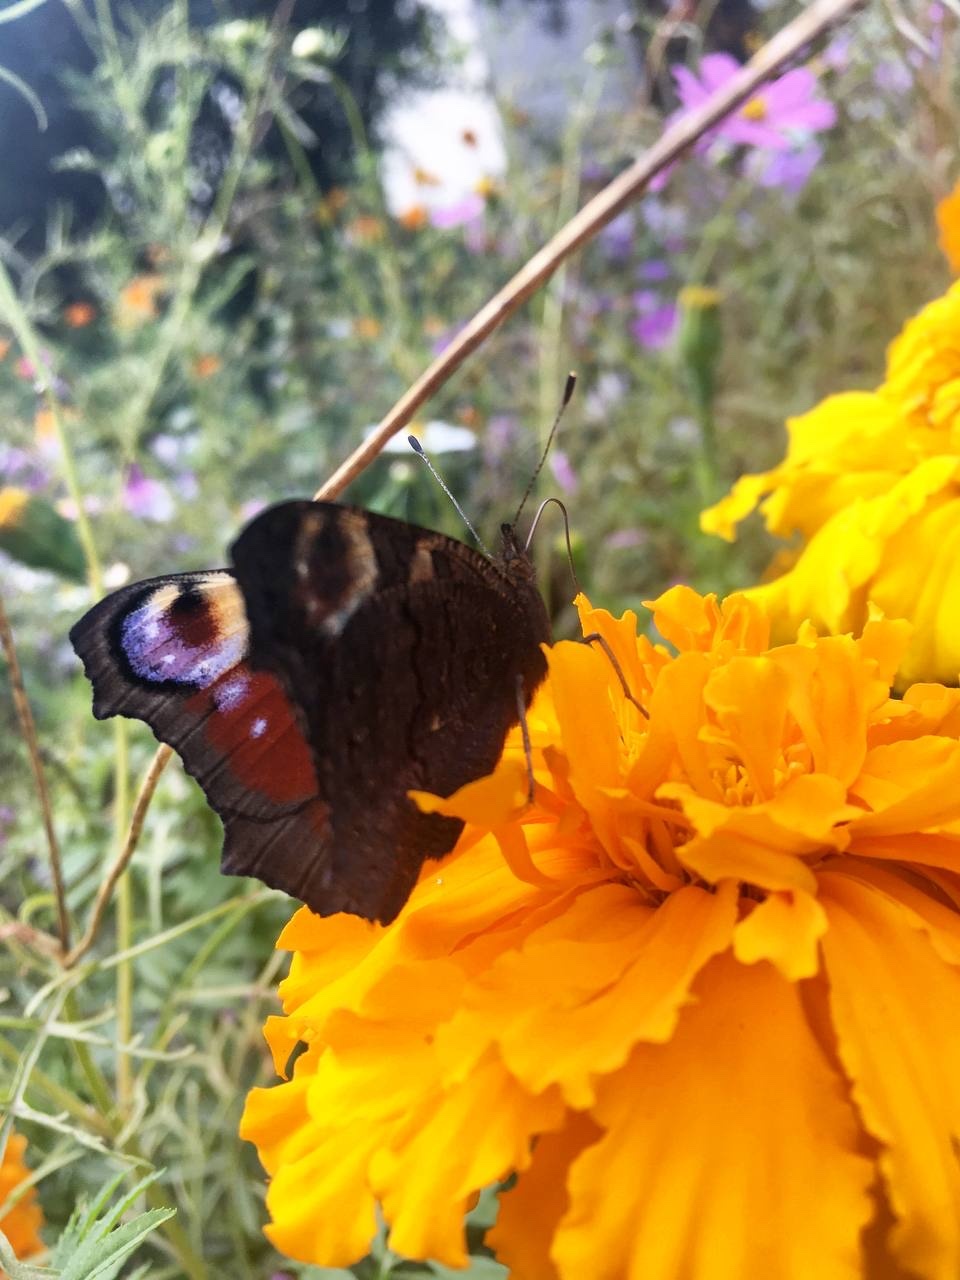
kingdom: Animalia
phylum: Arthropoda
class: Insecta
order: Lepidoptera
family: Nymphalidae
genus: Aglais
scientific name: Aglais io
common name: Peacock
